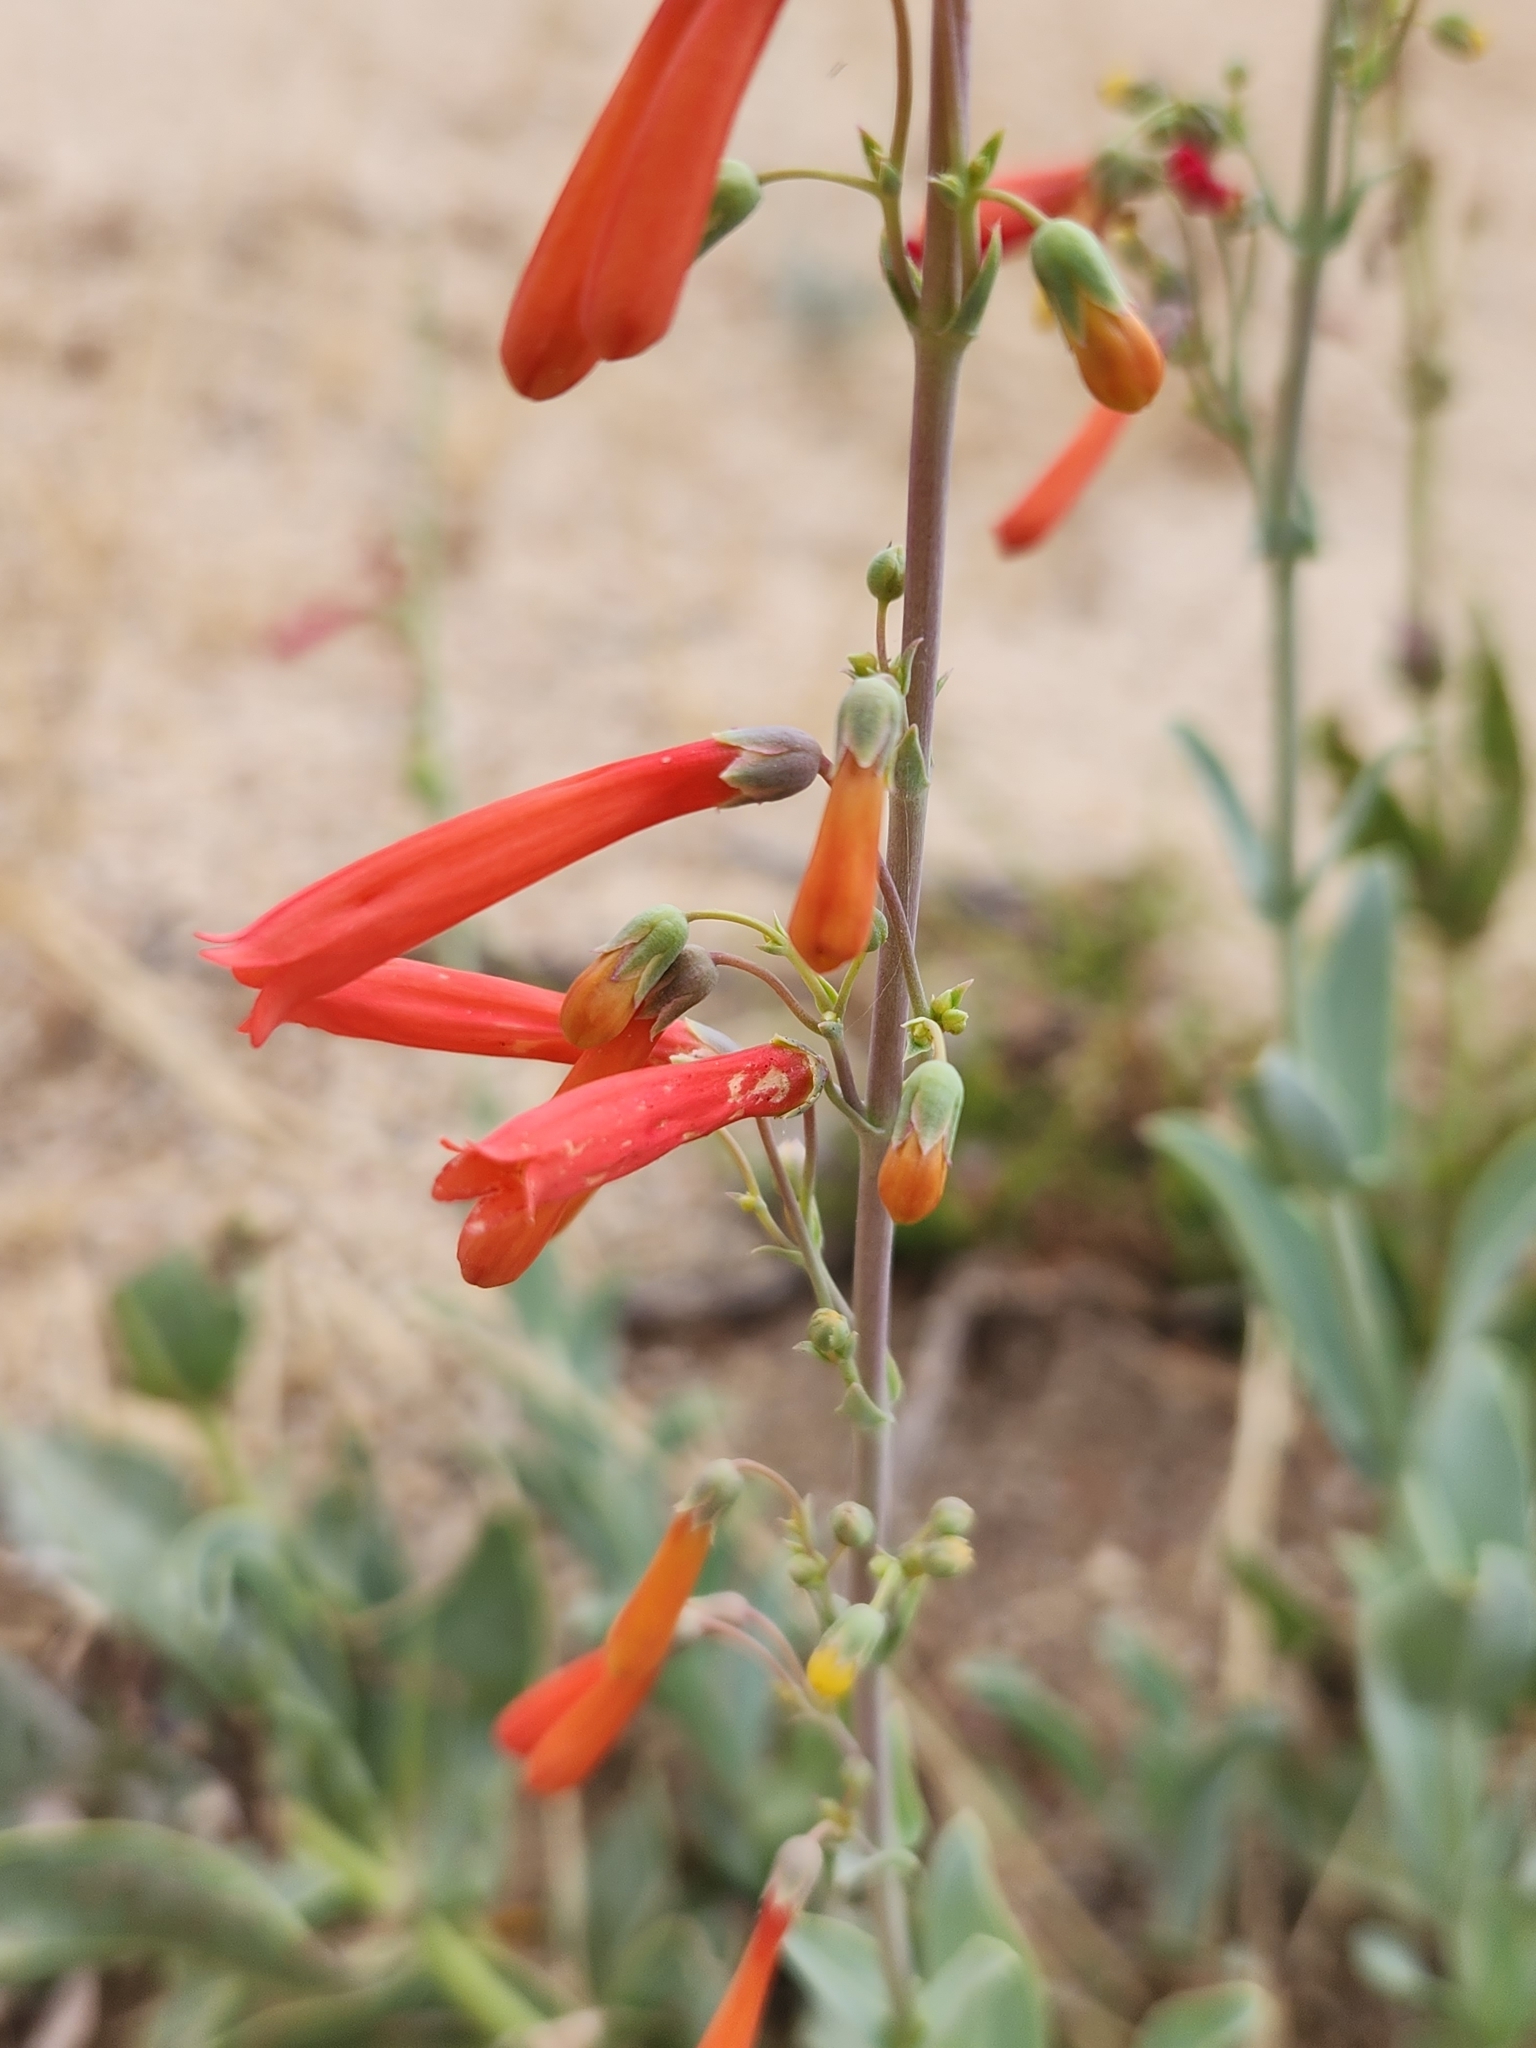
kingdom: Plantae
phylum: Tracheophyta
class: Magnoliopsida
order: Lamiales
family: Plantaginaceae
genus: Penstemon
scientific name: Penstemon centranthifolius
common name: Scarlet bugler
